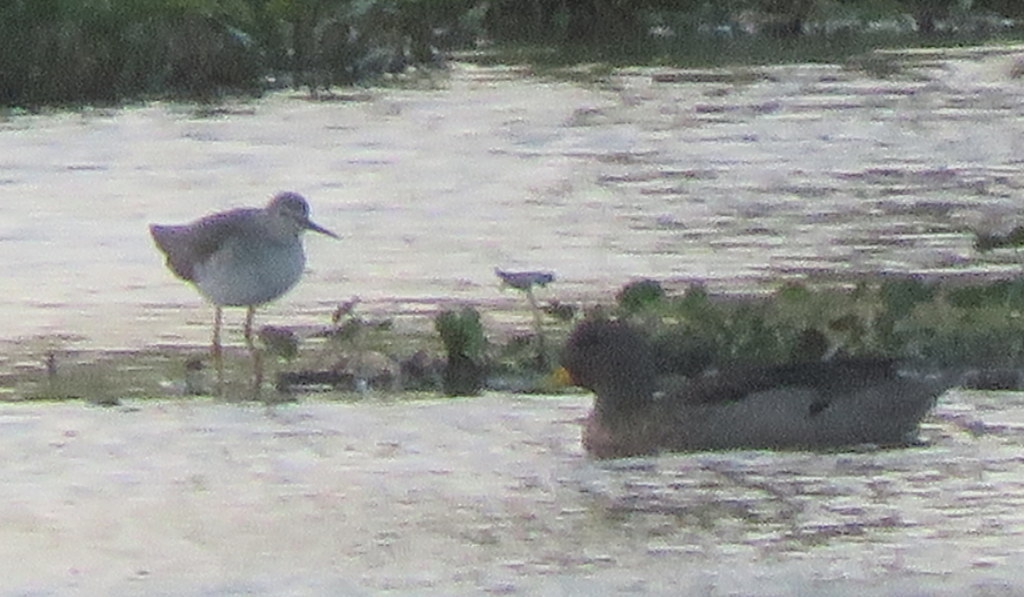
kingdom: Animalia
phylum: Chordata
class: Aves
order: Charadriiformes
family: Scolopacidae
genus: Tringa
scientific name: Tringa flavipes
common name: Lesser yellowlegs
